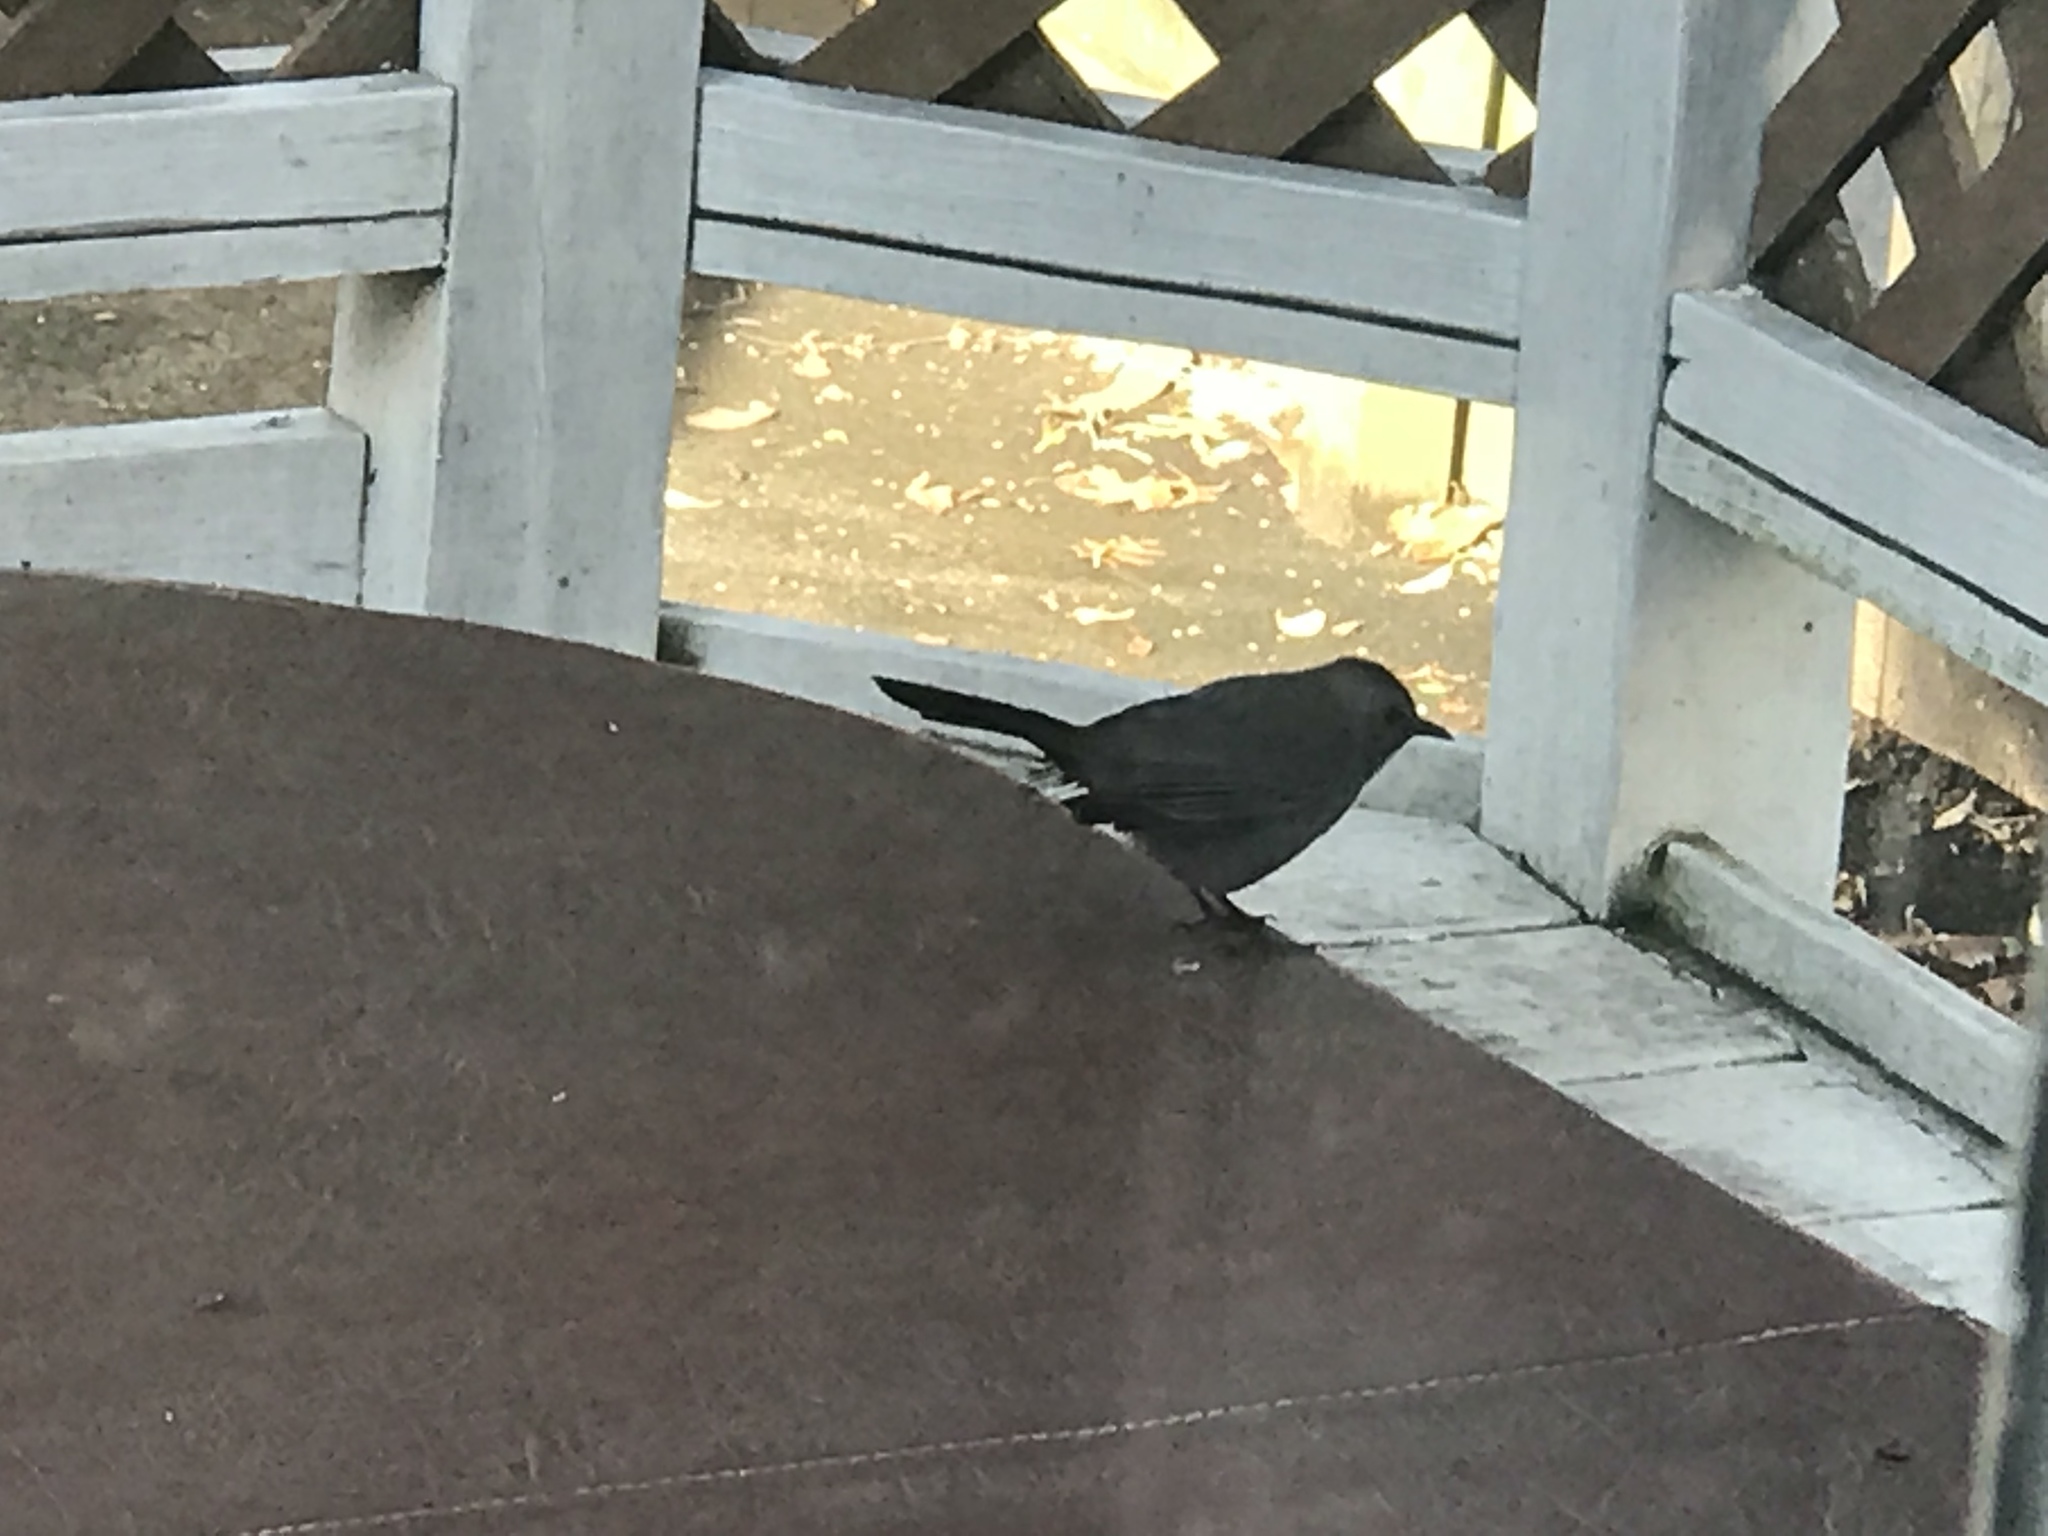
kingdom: Animalia
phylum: Chordata
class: Aves
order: Passeriformes
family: Mimidae
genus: Dumetella
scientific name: Dumetella carolinensis
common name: Gray catbird
